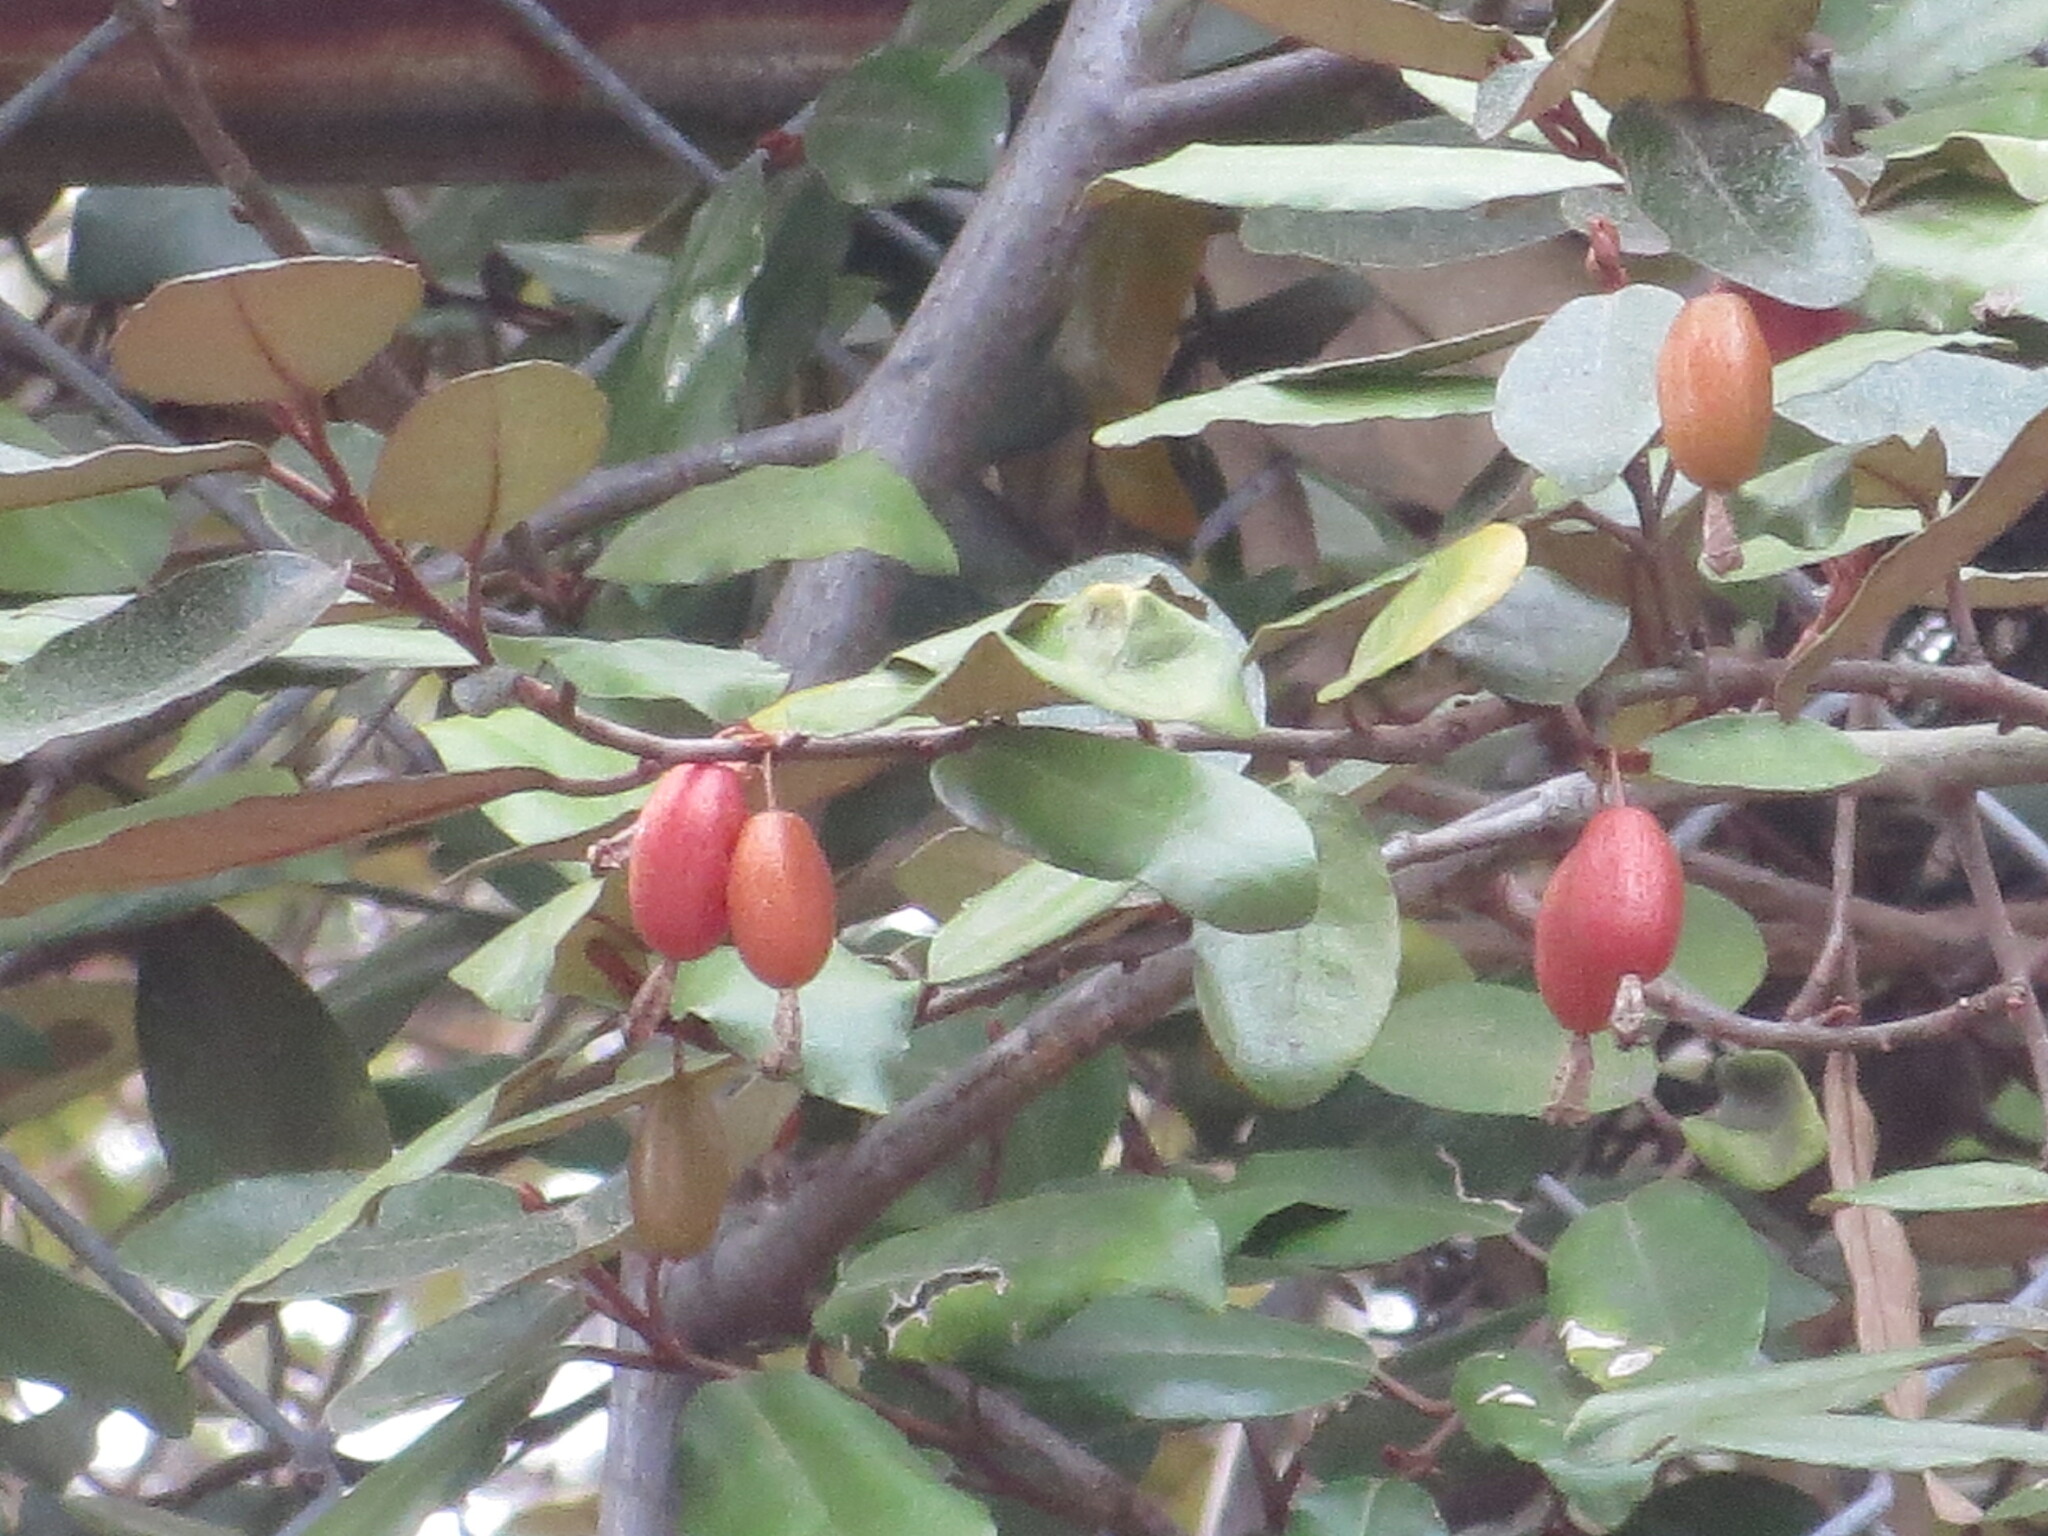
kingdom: Plantae
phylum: Tracheophyta
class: Magnoliopsida
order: Rosales
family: Elaeagnaceae
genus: Elaeagnus
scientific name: Elaeagnus pungens
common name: Spiny oleaster
